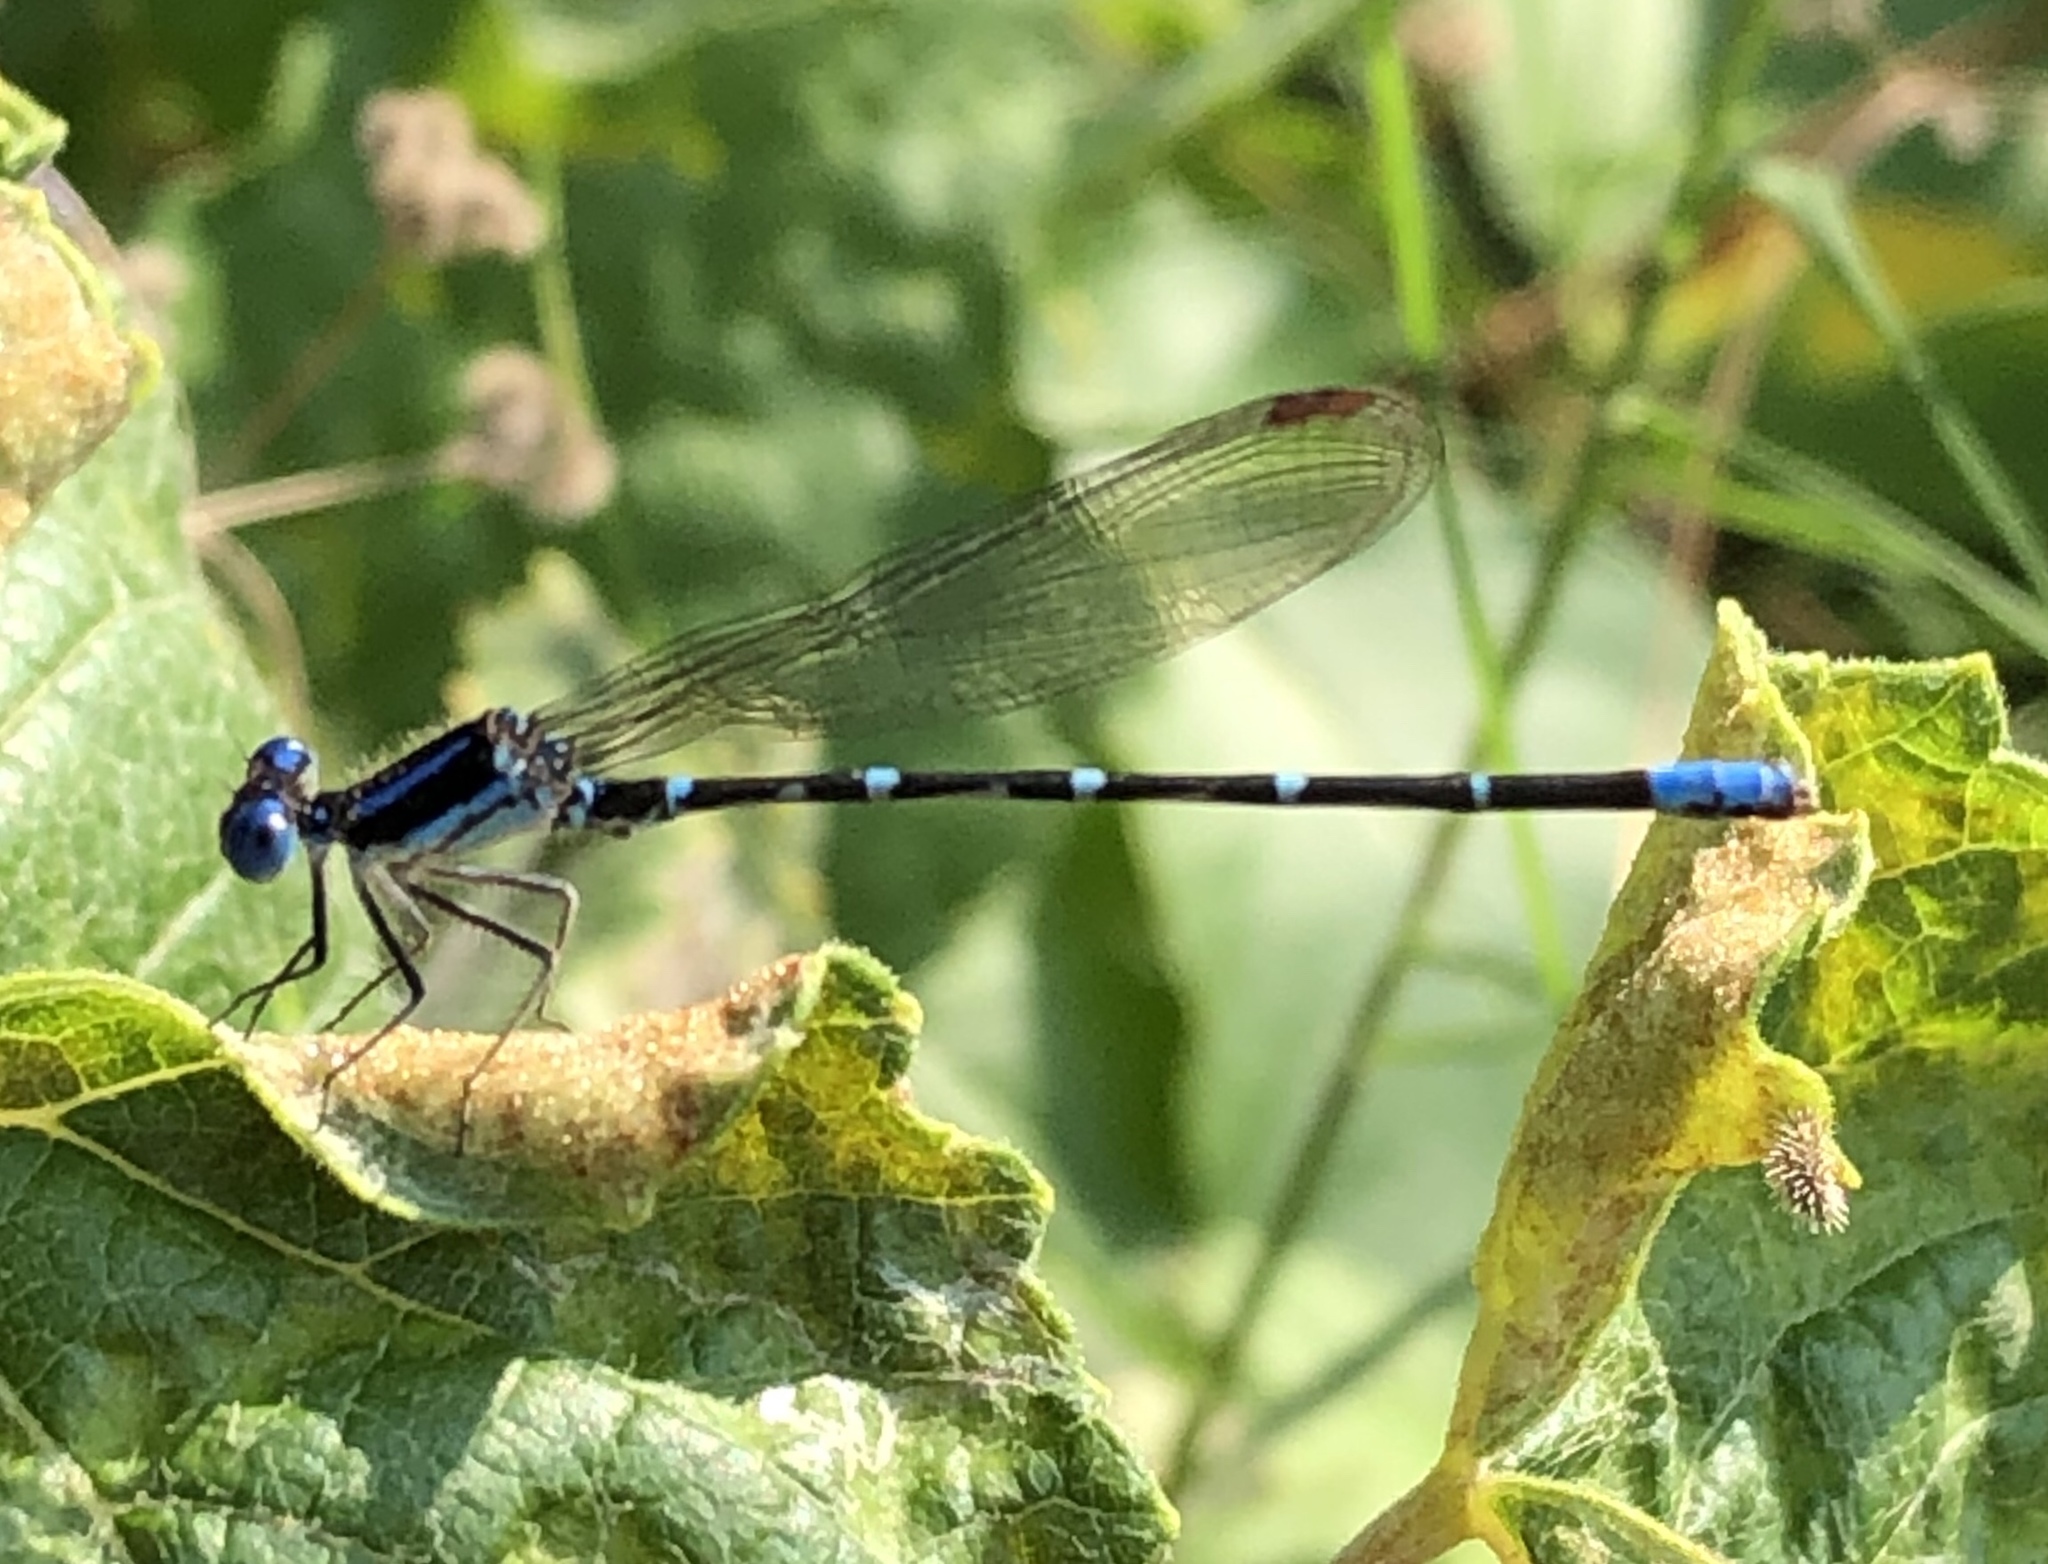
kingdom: Animalia
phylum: Arthropoda
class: Insecta
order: Odonata
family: Coenagrionidae
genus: Argia
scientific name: Argia sedula
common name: Blue-ringed dancer
